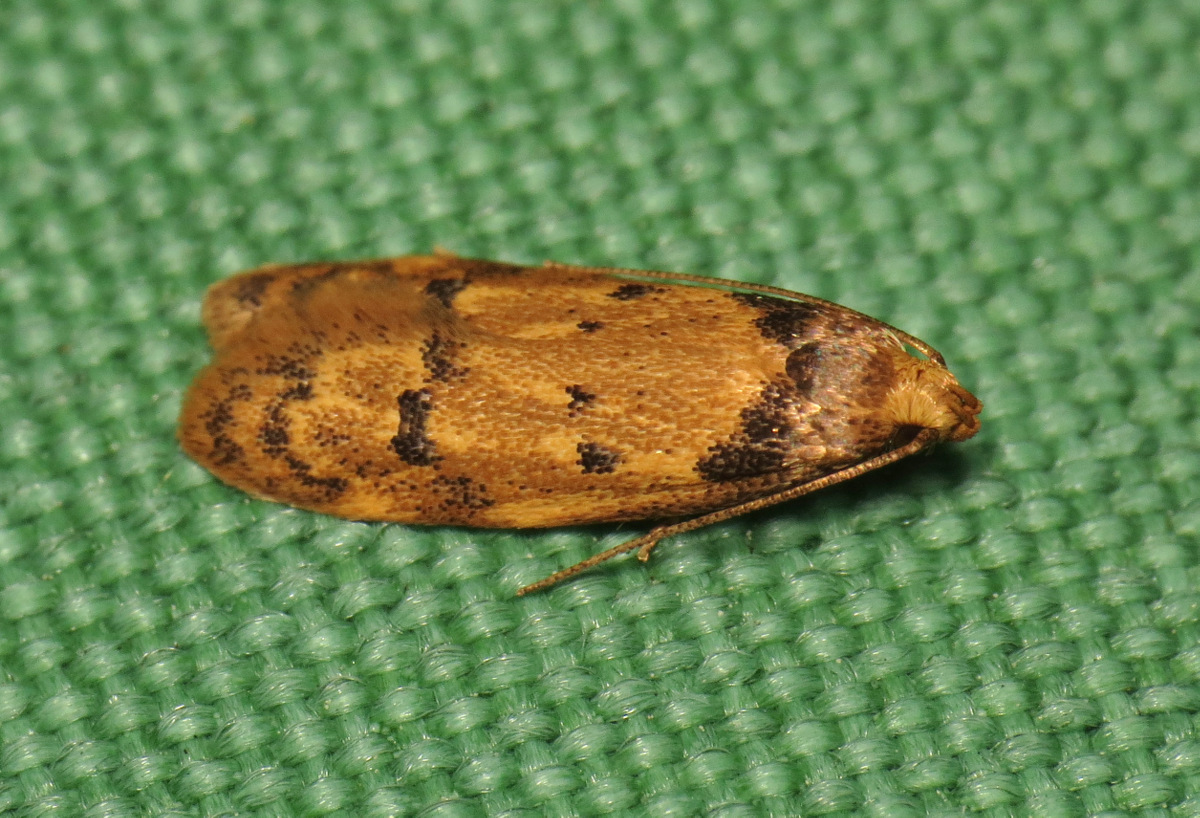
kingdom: Animalia
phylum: Arthropoda
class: Insecta
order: Lepidoptera
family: Autostichidae
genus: Gerdana
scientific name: Gerdana caritella
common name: Gerdana moth
